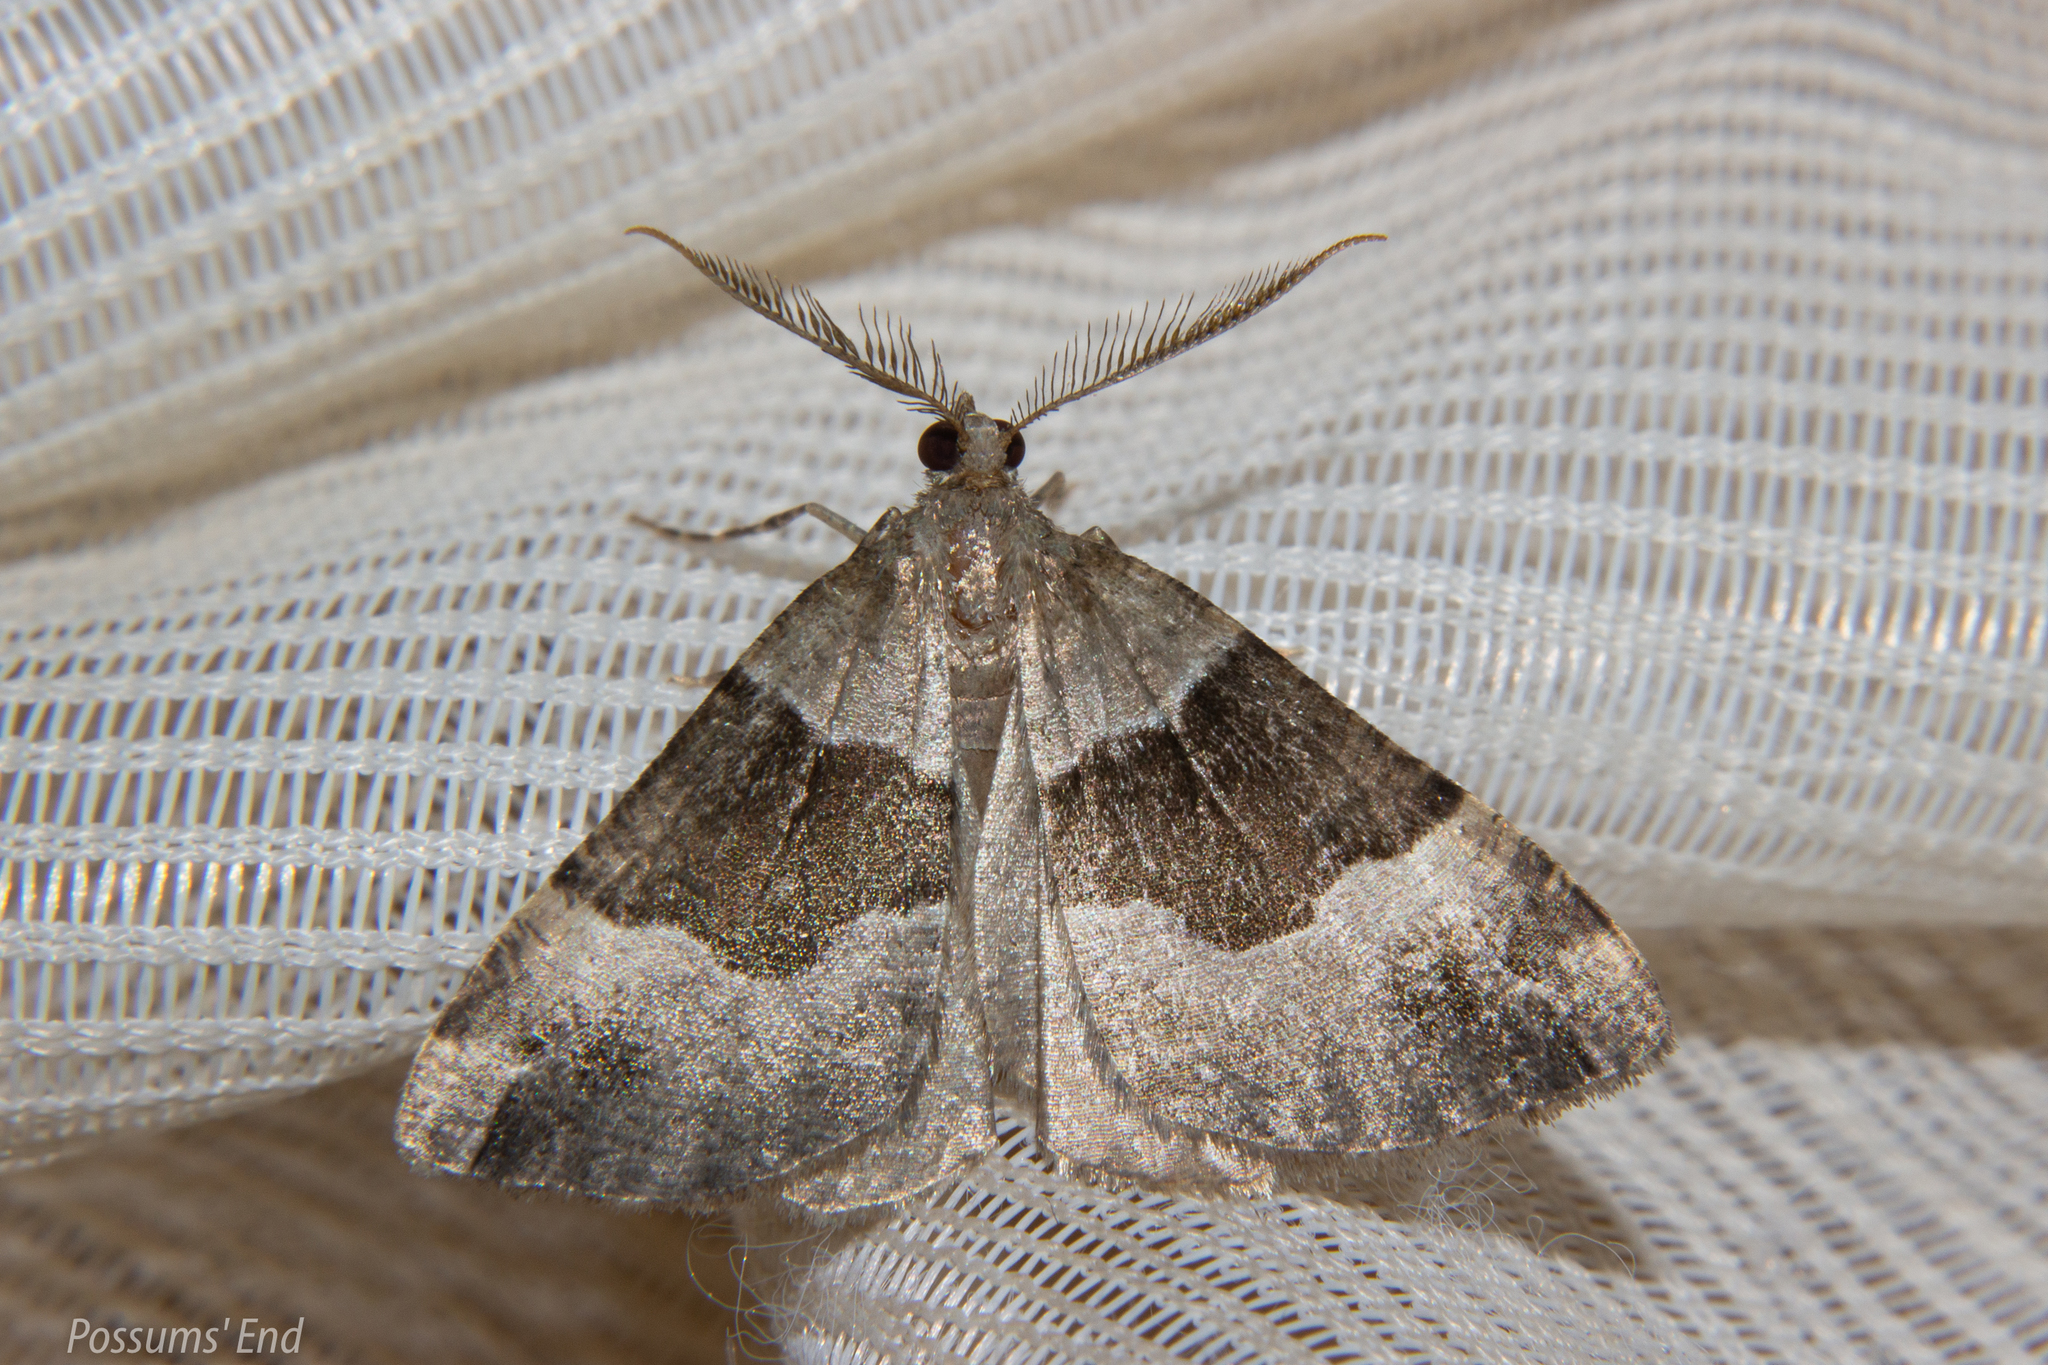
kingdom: Animalia
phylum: Arthropoda
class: Insecta
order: Lepidoptera
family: Geometridae
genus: Pseudocoremia
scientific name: Pseudocoremia
